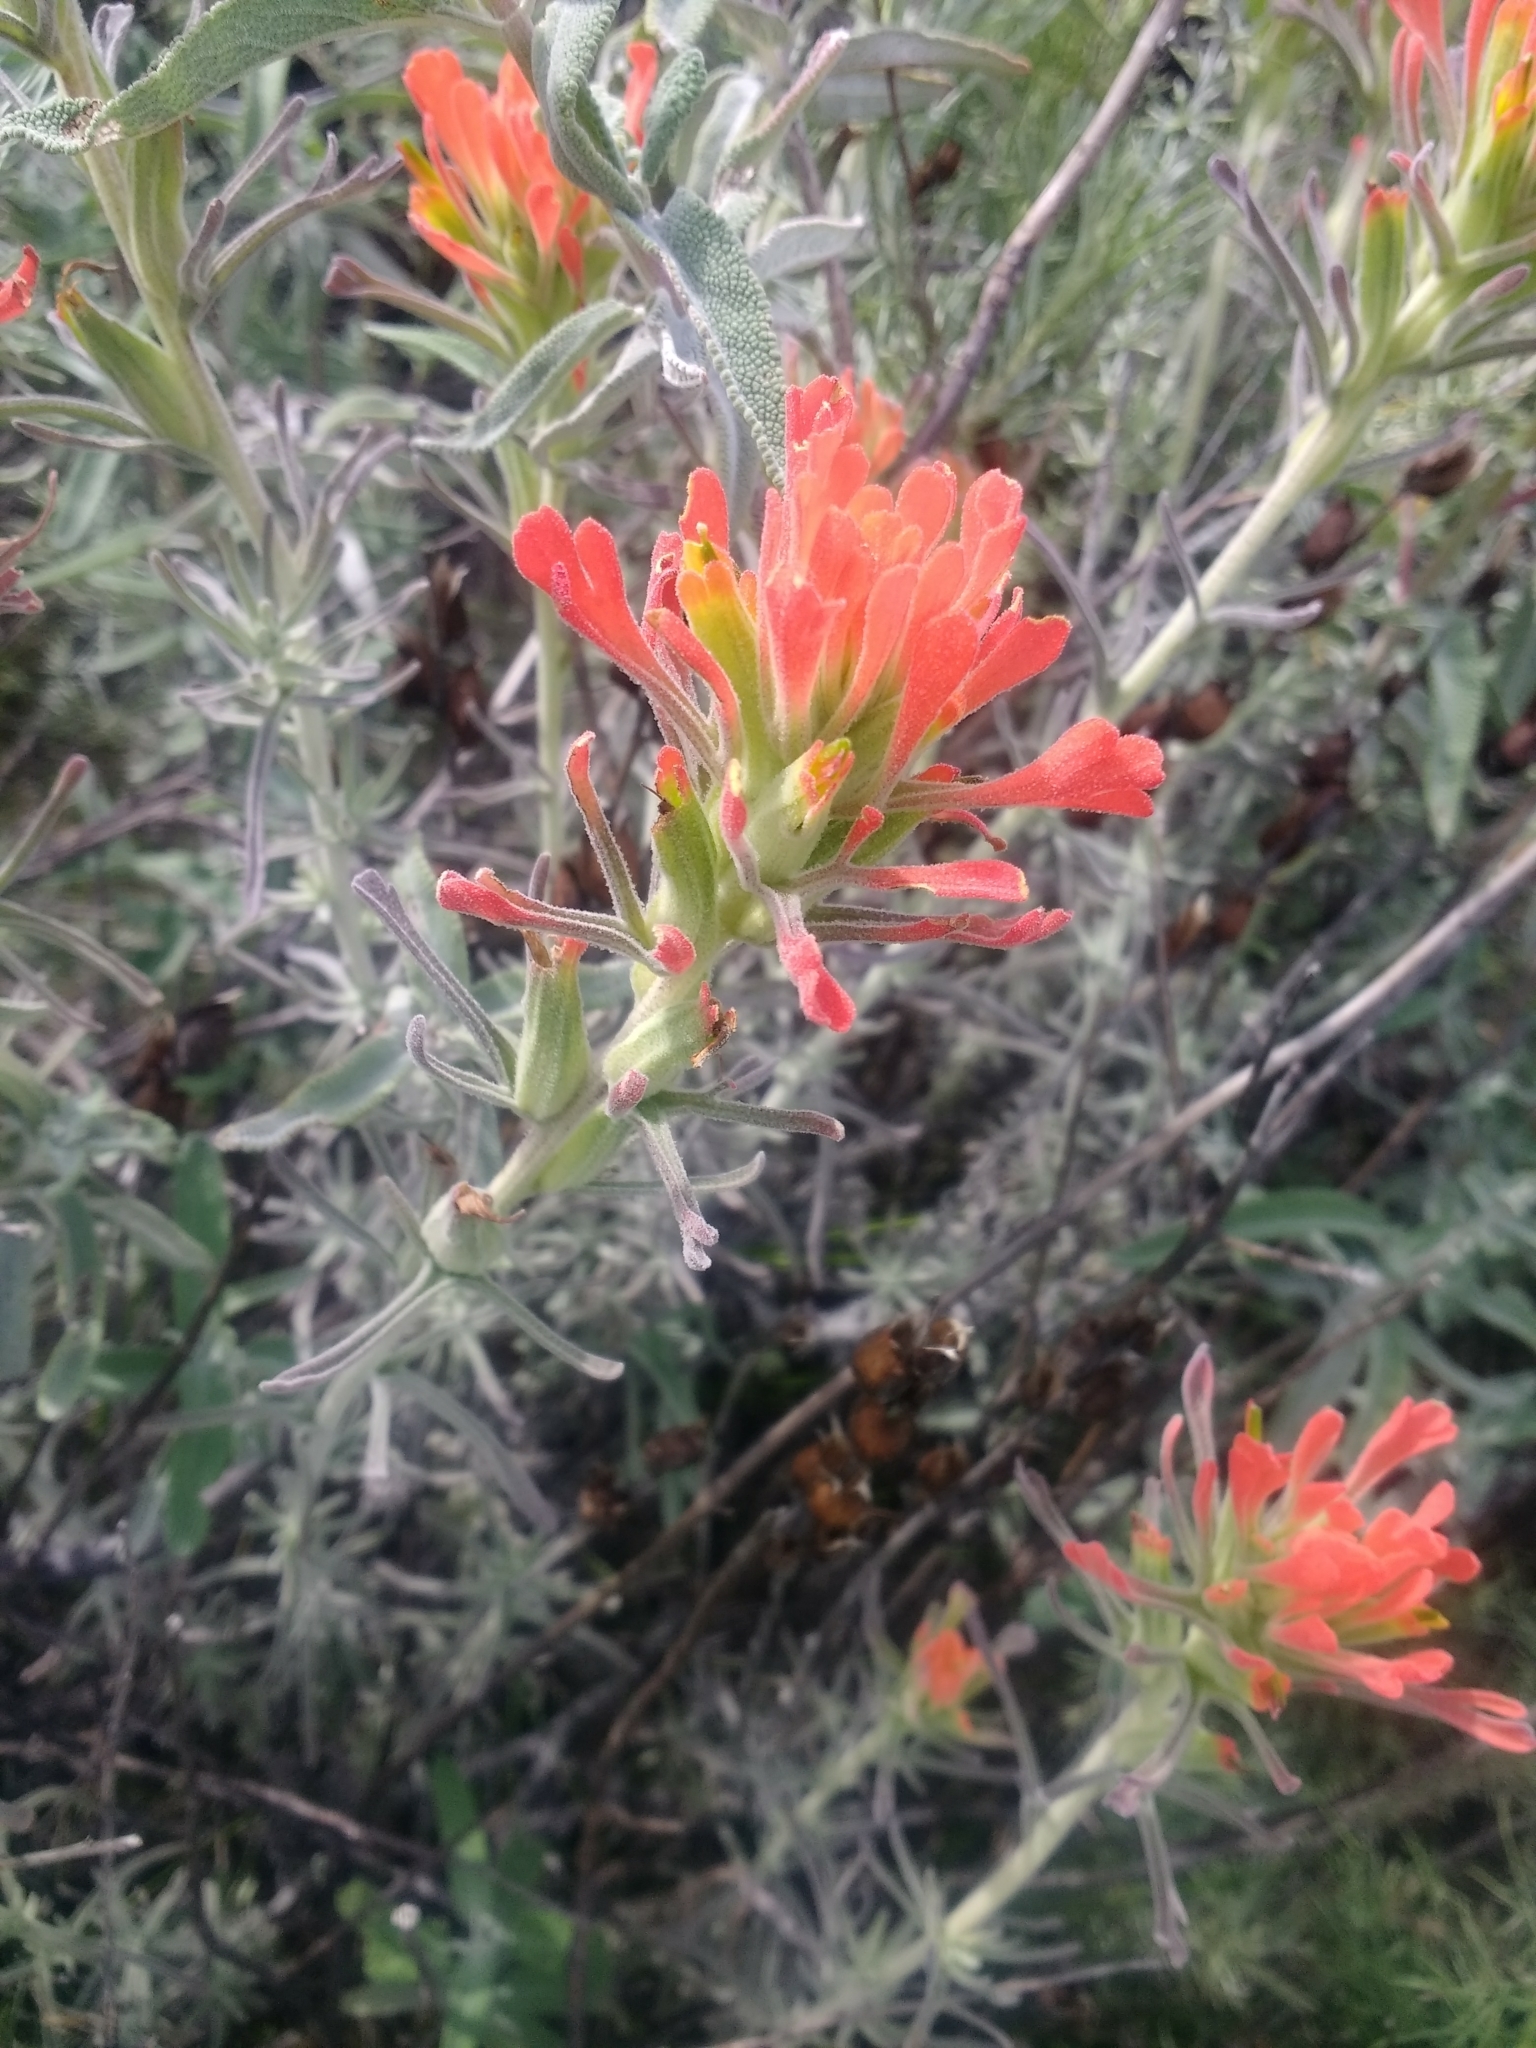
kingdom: Plantae
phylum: Tracheophyta
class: Magnoliopsida
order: Lamiales
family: Orobanchaceae
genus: Castilleja
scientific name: Castilleja foliolosa
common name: Woolly indian paintbrush
